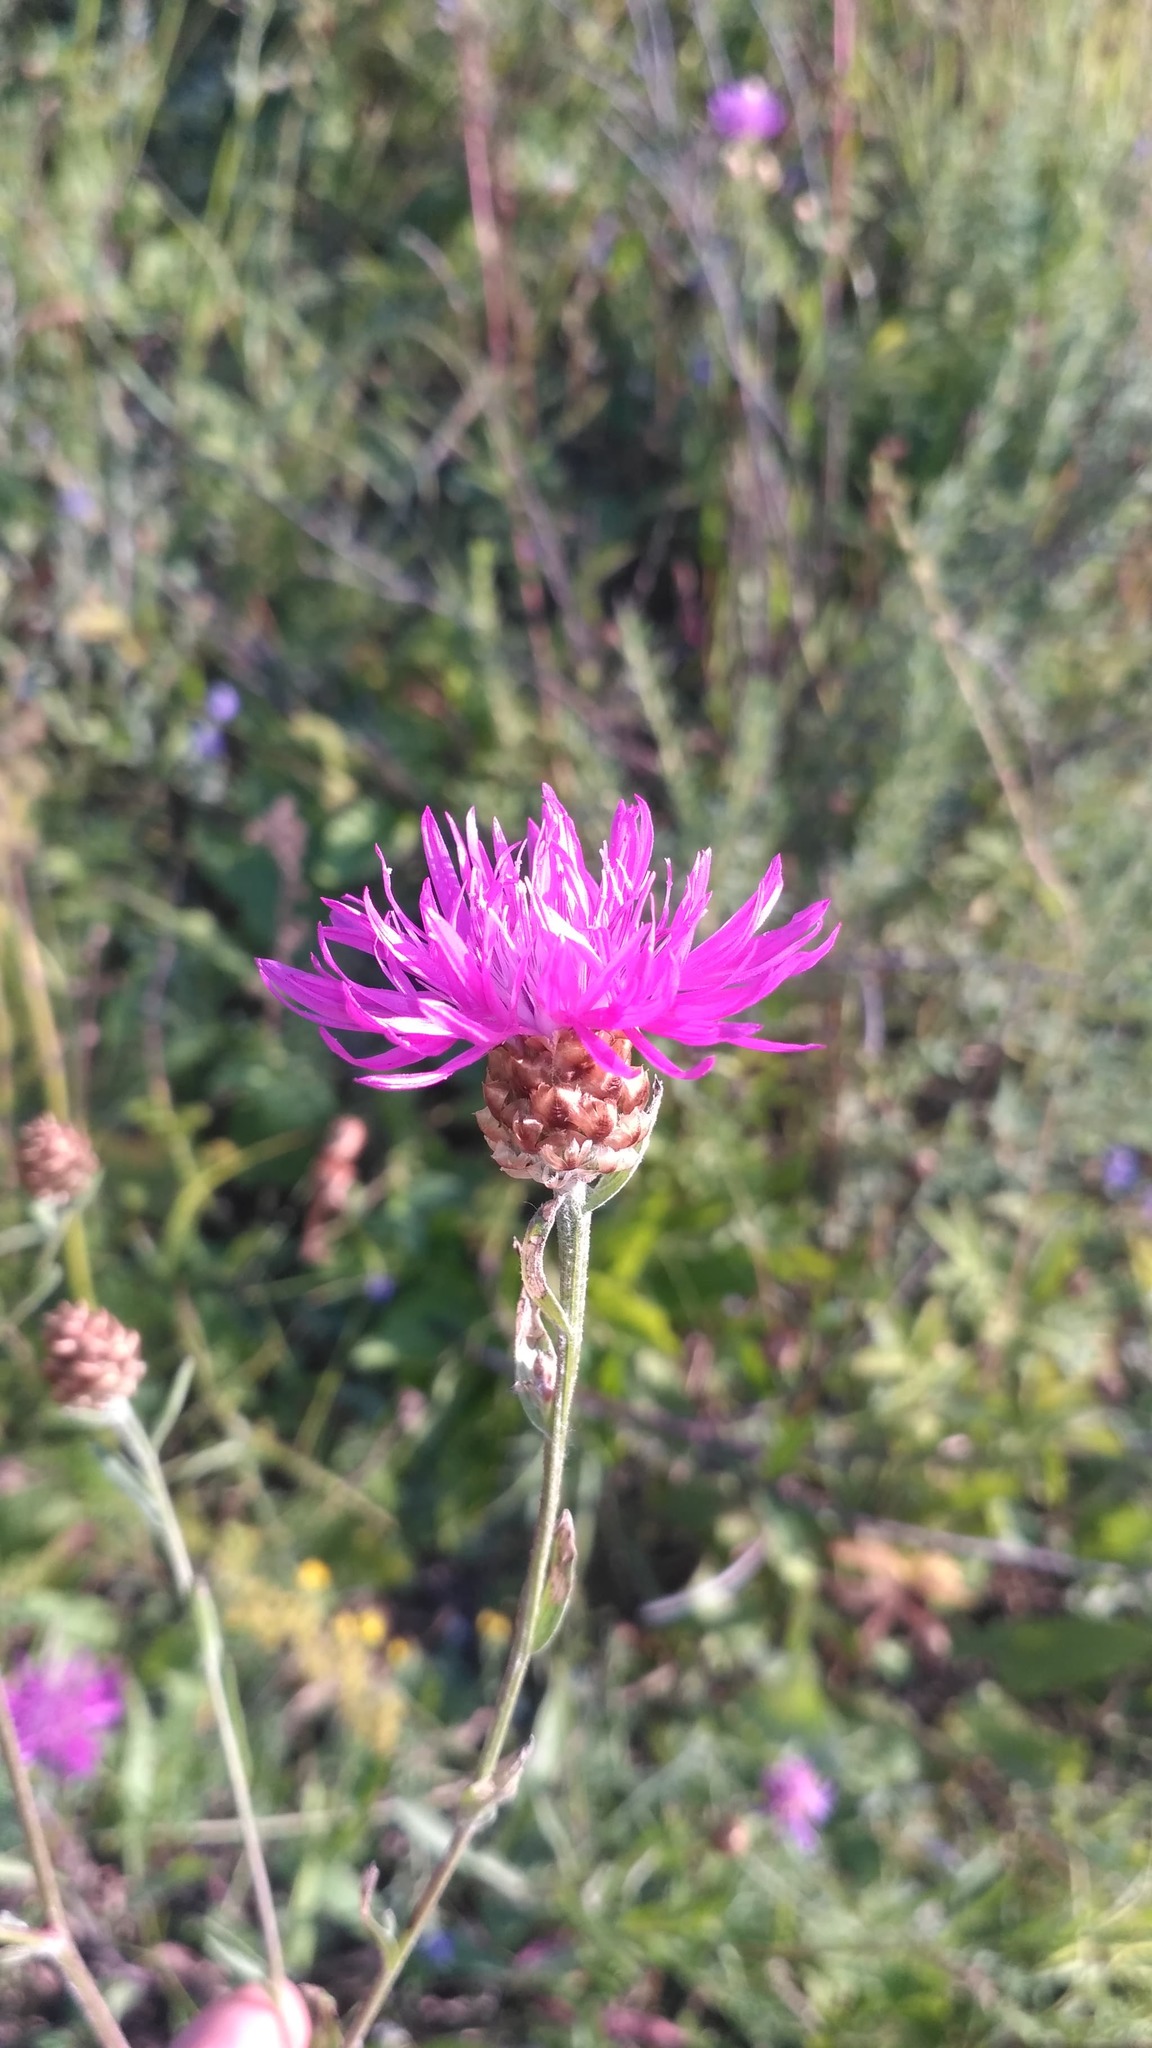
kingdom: Plantae
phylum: Tracheophyta
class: Magnoliopsida
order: Asterales
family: Asteraceae
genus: Centaurea
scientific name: Centaurea jacea
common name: Brown knapweed
